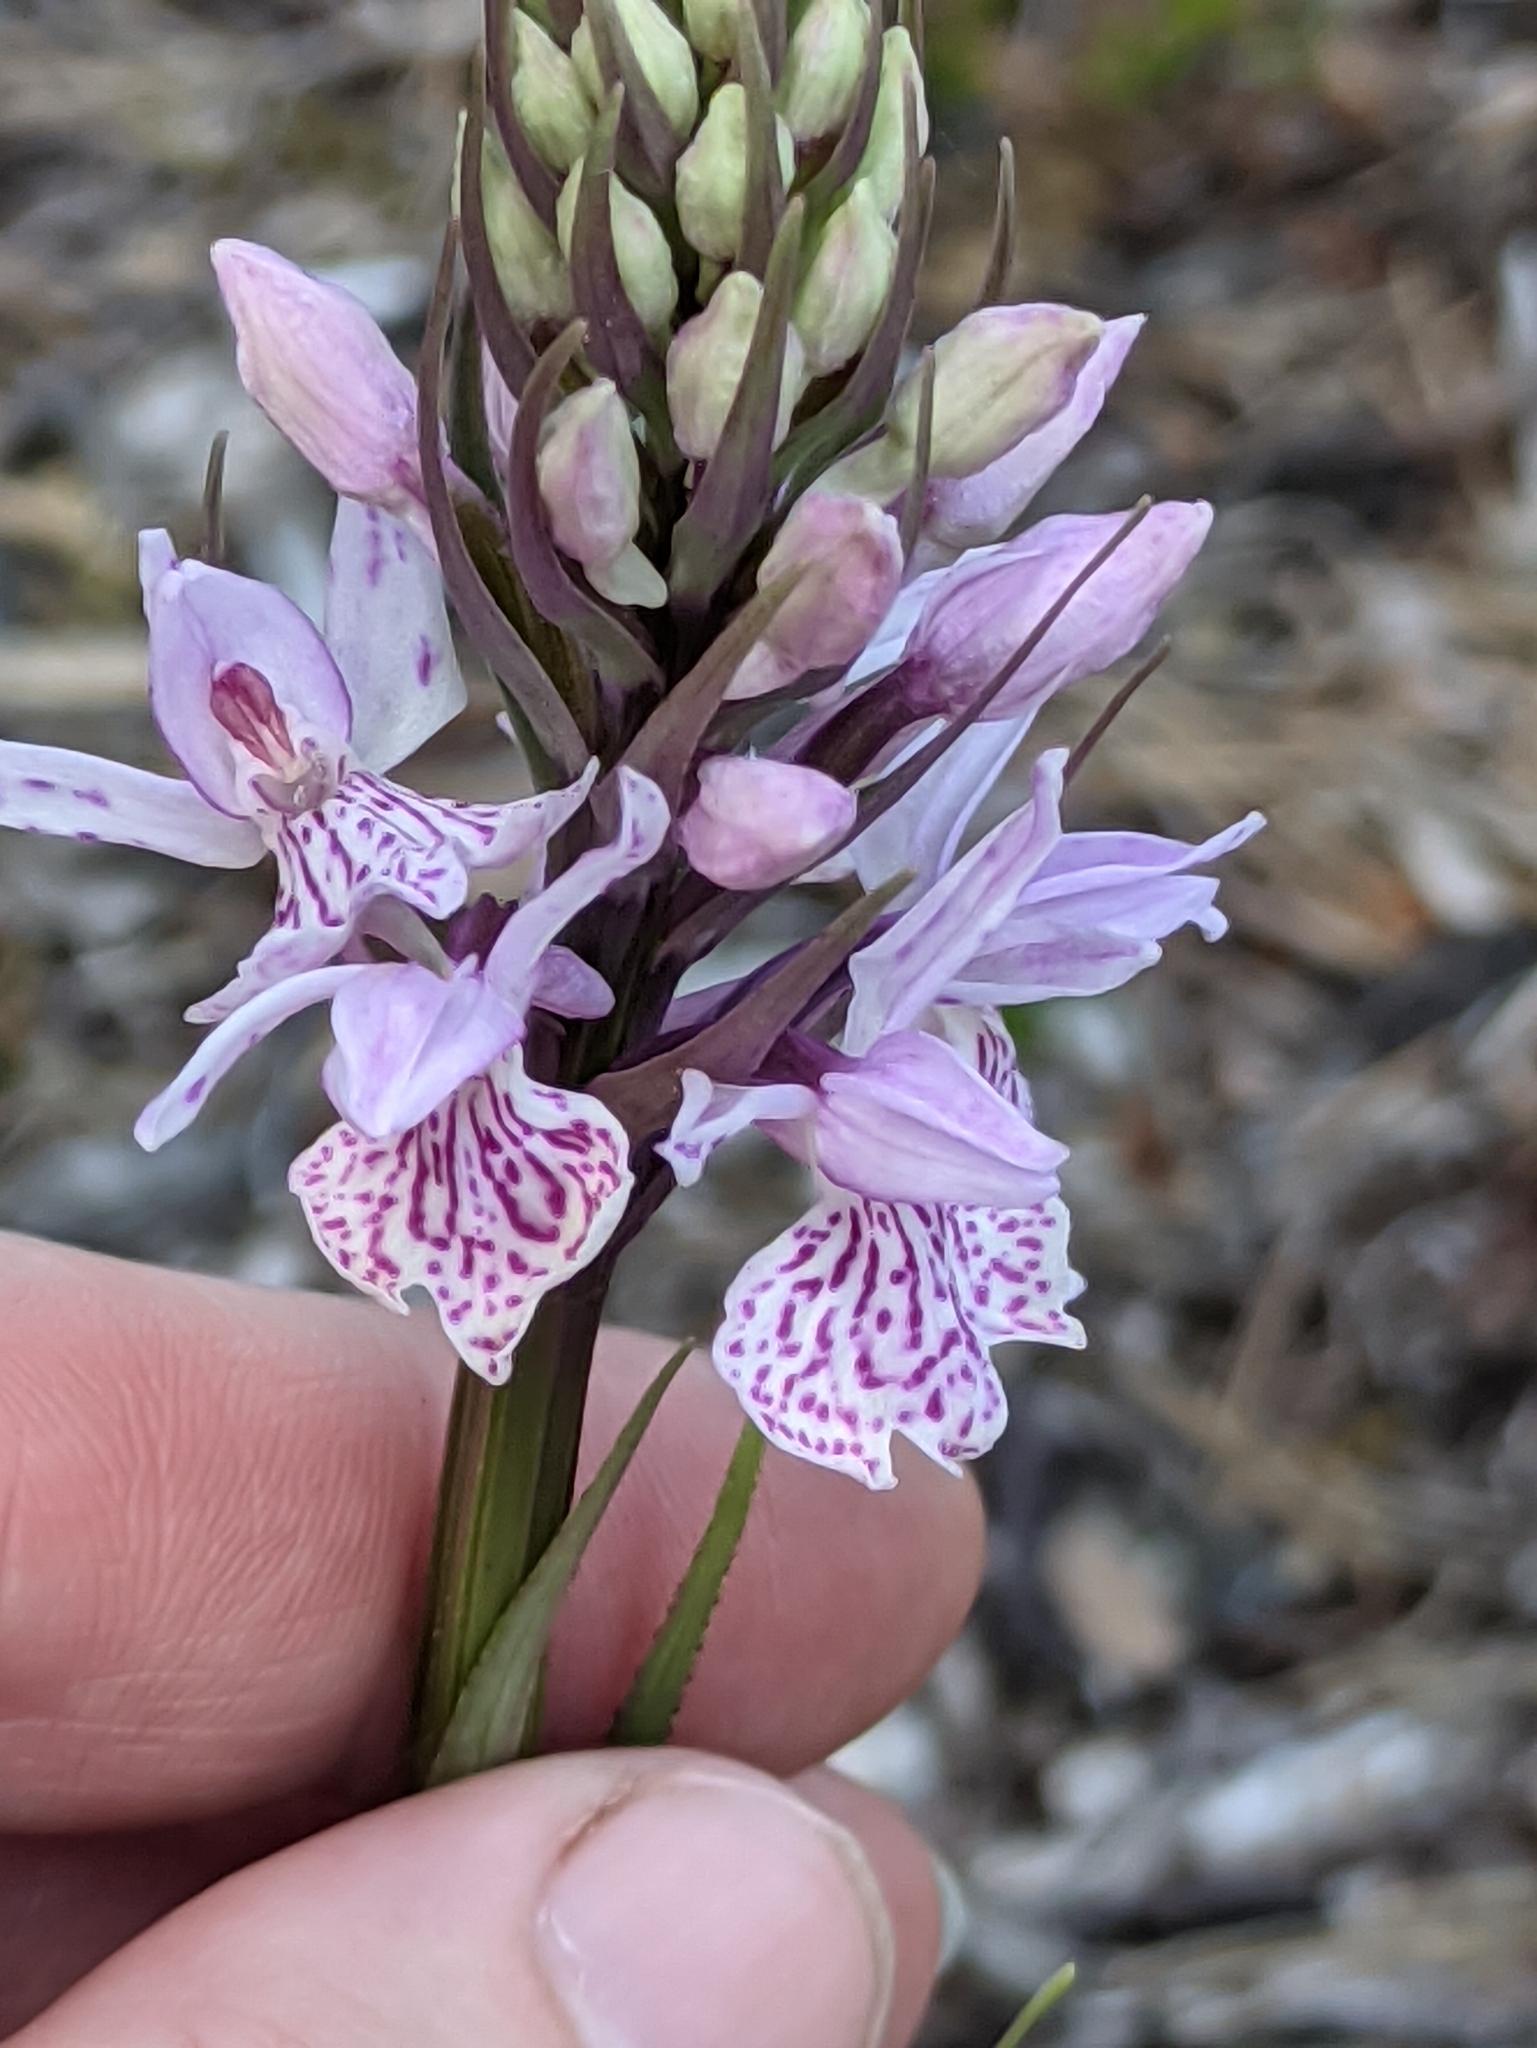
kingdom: Plantae
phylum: Tracheophyta
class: Liliopsida
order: Asparagales
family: Orchidaceae
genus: Dactylorhiza
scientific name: Dactylorhiza maculata
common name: Heath spotted-orchid
